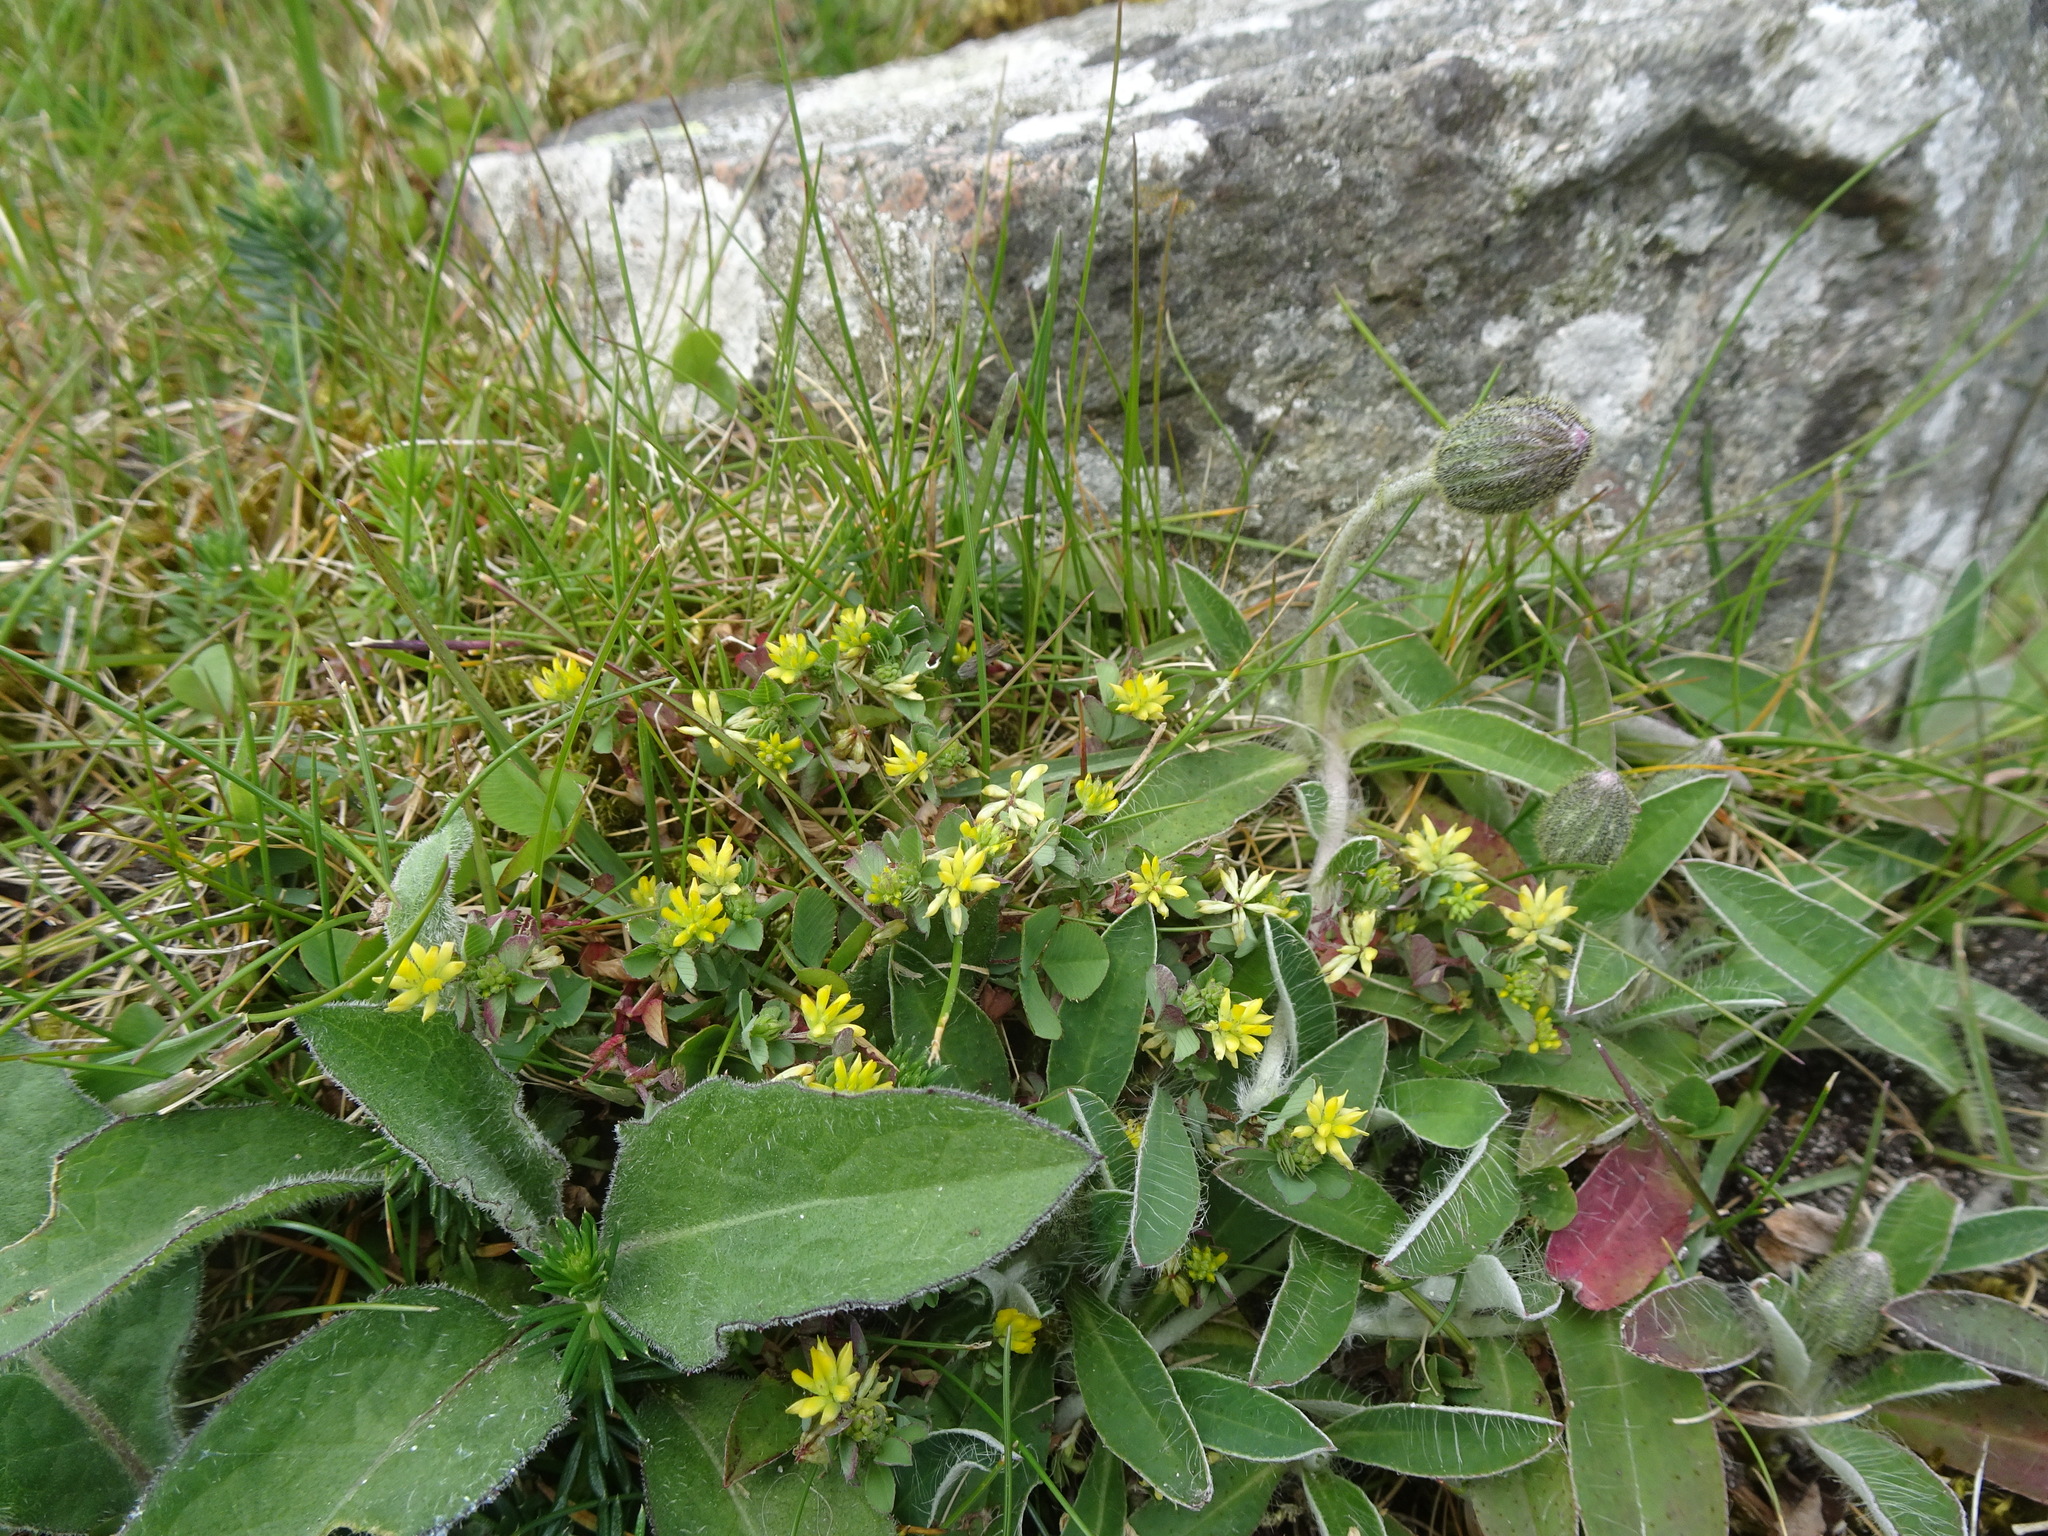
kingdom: Plantae
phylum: Tracheophyta
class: Magnoliopsida
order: Fabales
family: Fabaceae
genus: Trifolium
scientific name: Trifolium dubium
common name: Suckling clover
